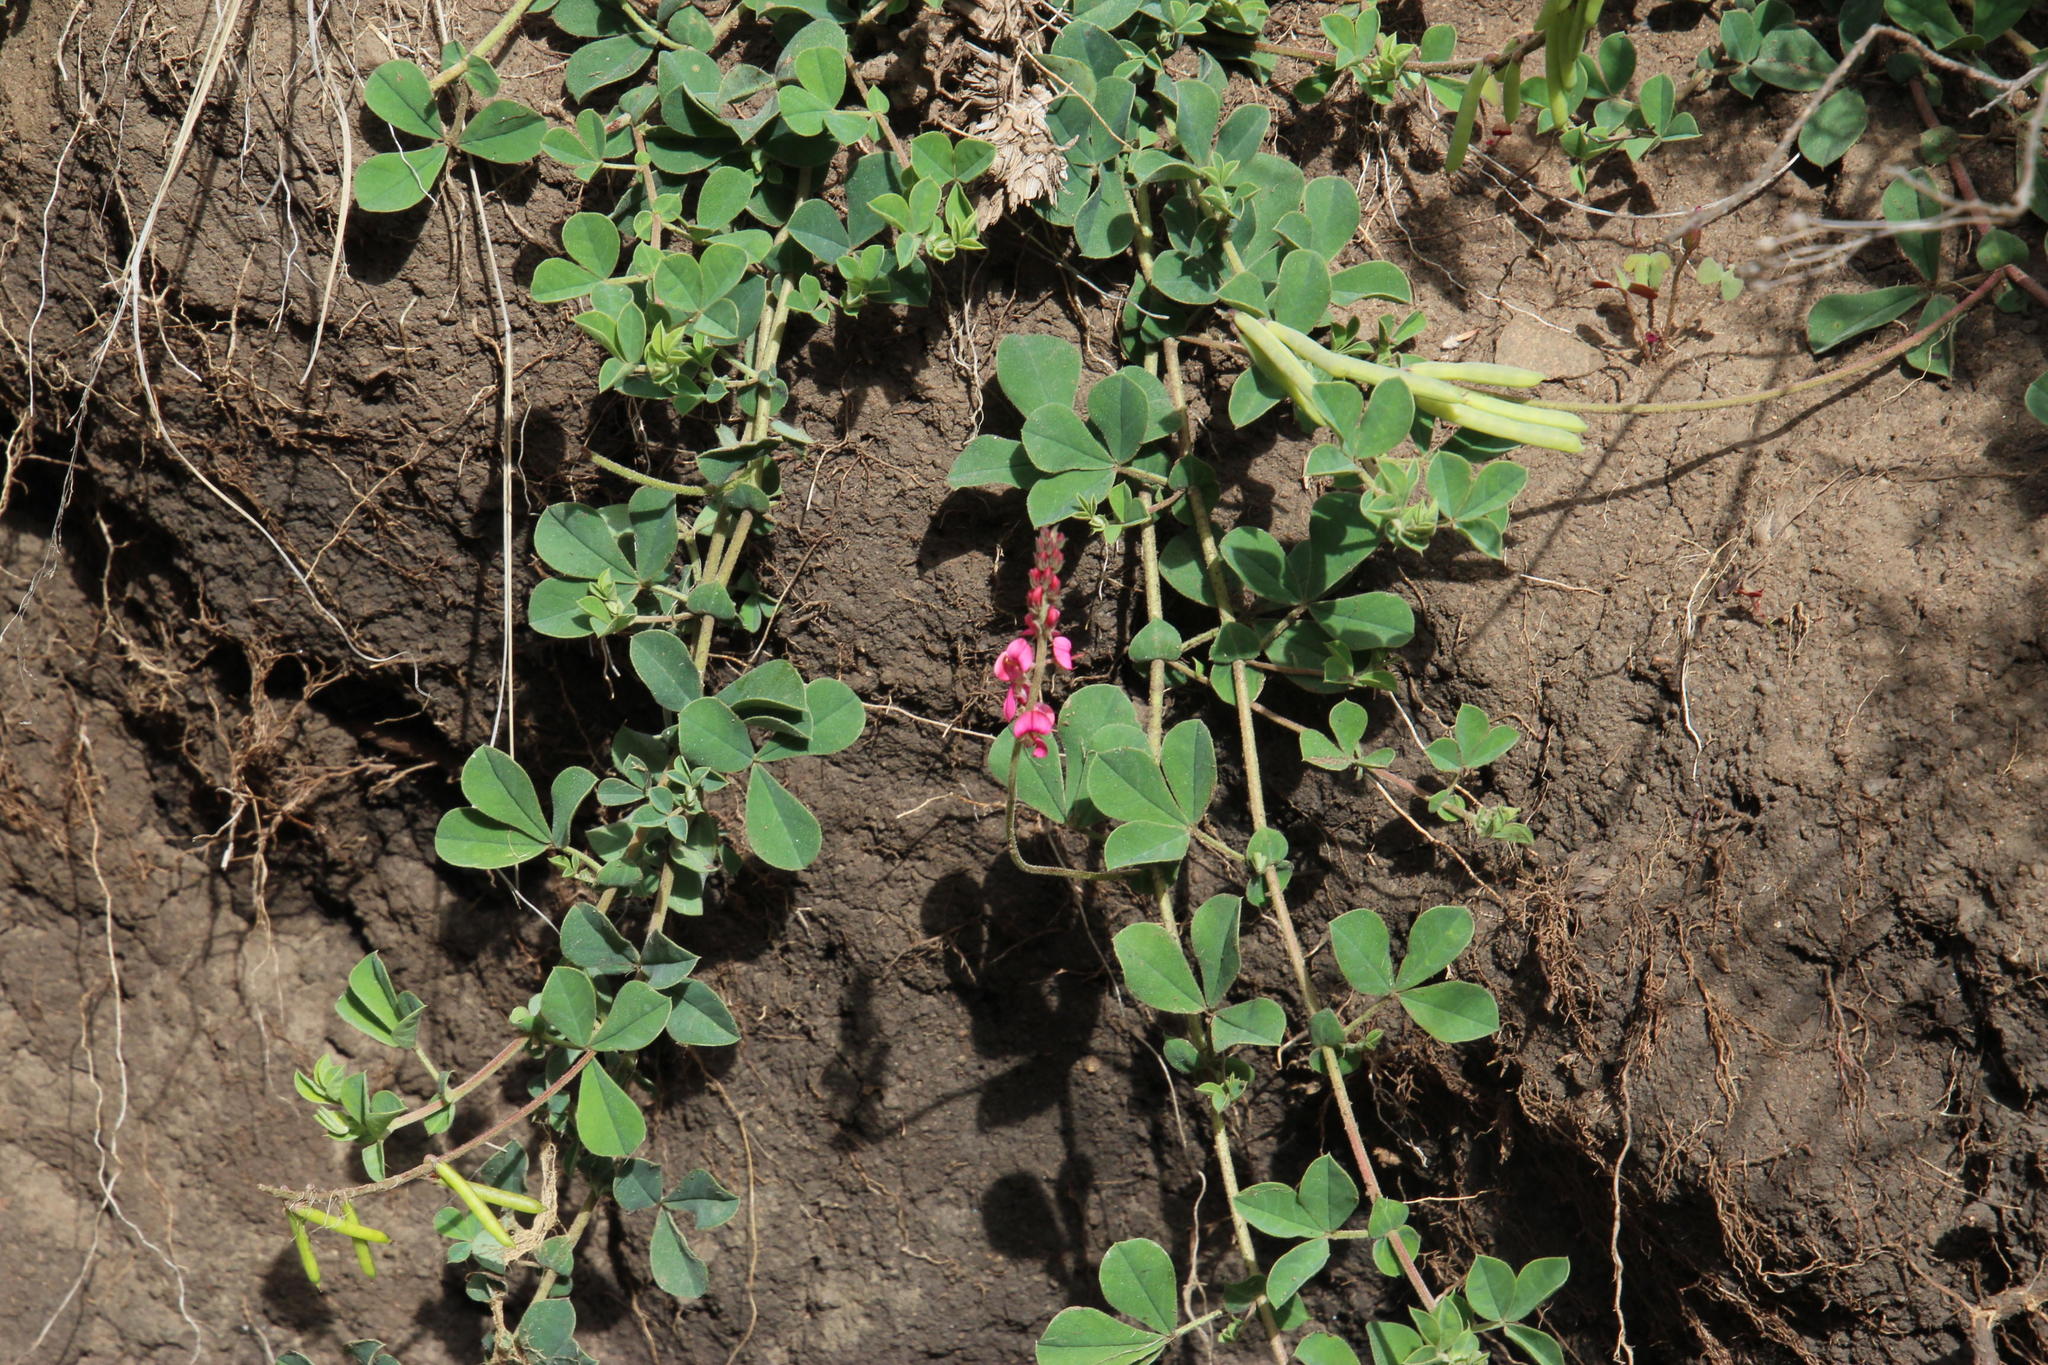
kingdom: Plantae
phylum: Tracheophyta
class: Magnoliopsida
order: Fabales
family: Fabaceae
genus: Indigofera
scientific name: Indigofera alpina
